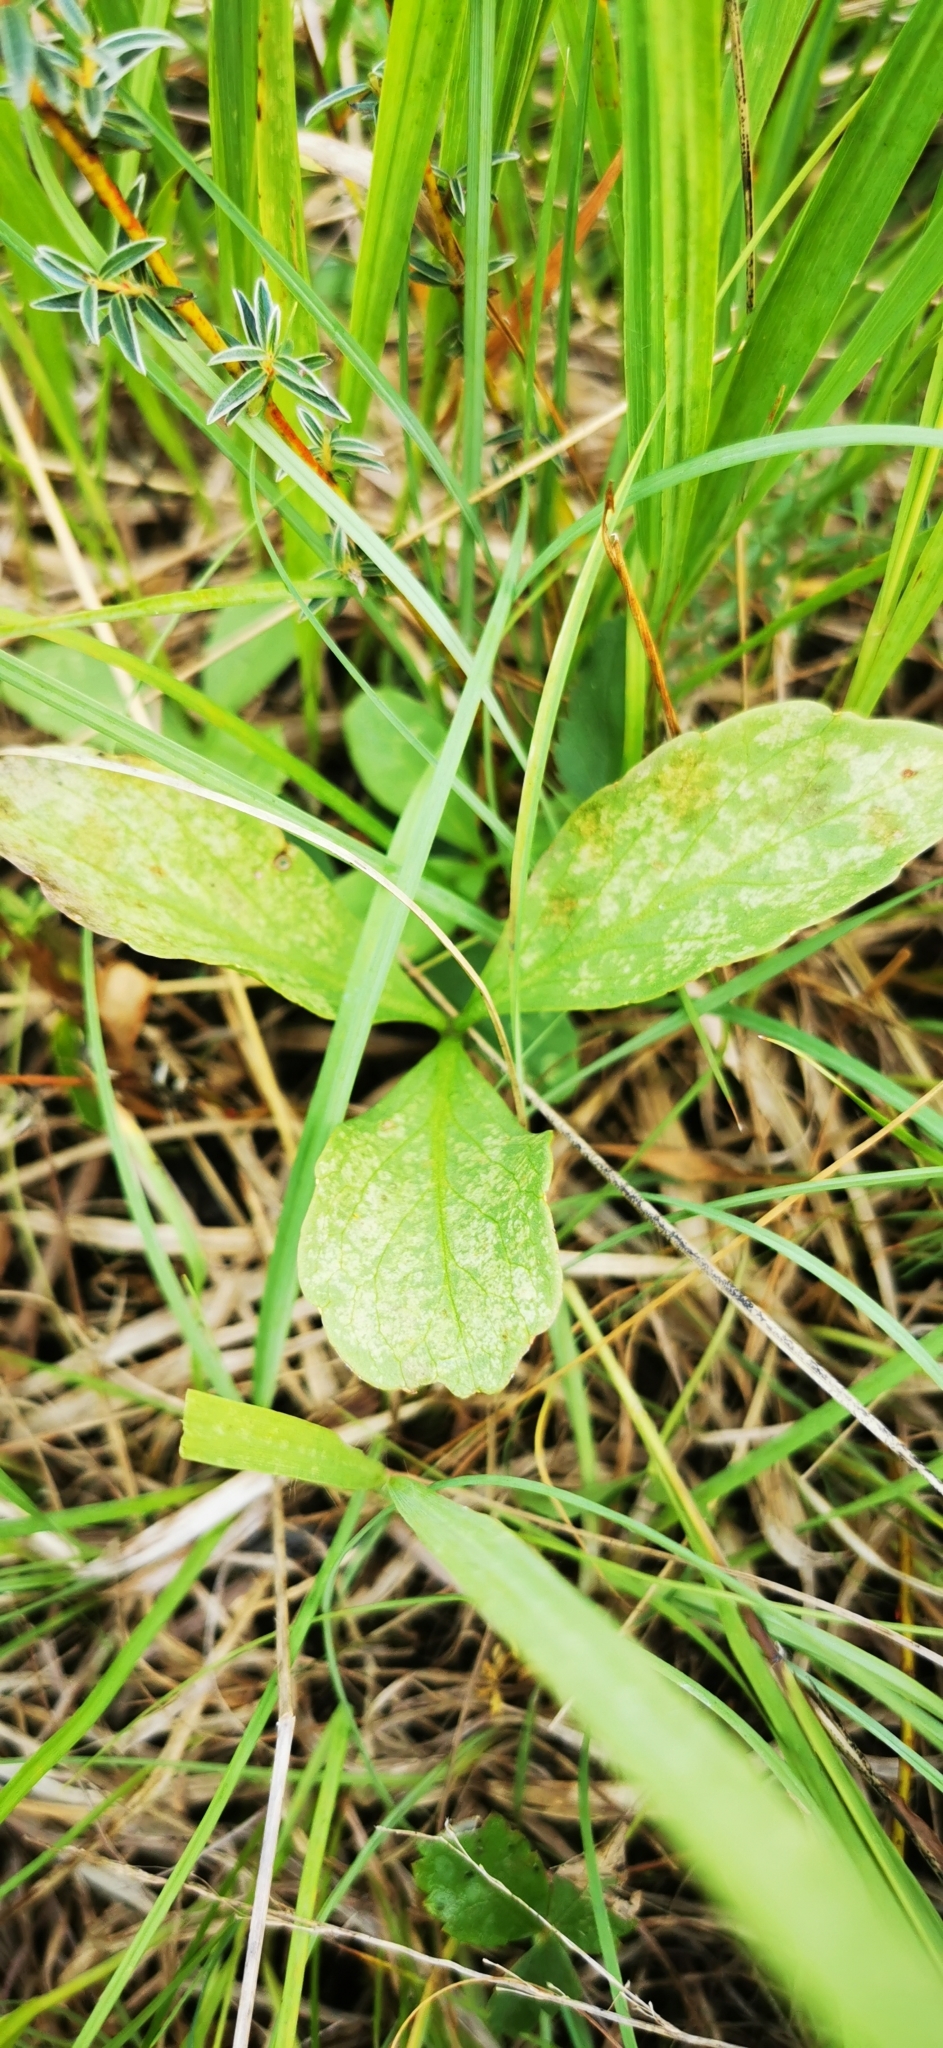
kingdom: Plantae
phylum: Tracheophyta
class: Magnoliopsida
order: Asterales
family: Menyanthaceae
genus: Menyanthes
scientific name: Menyanthes trifoliata
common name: Bogbean
